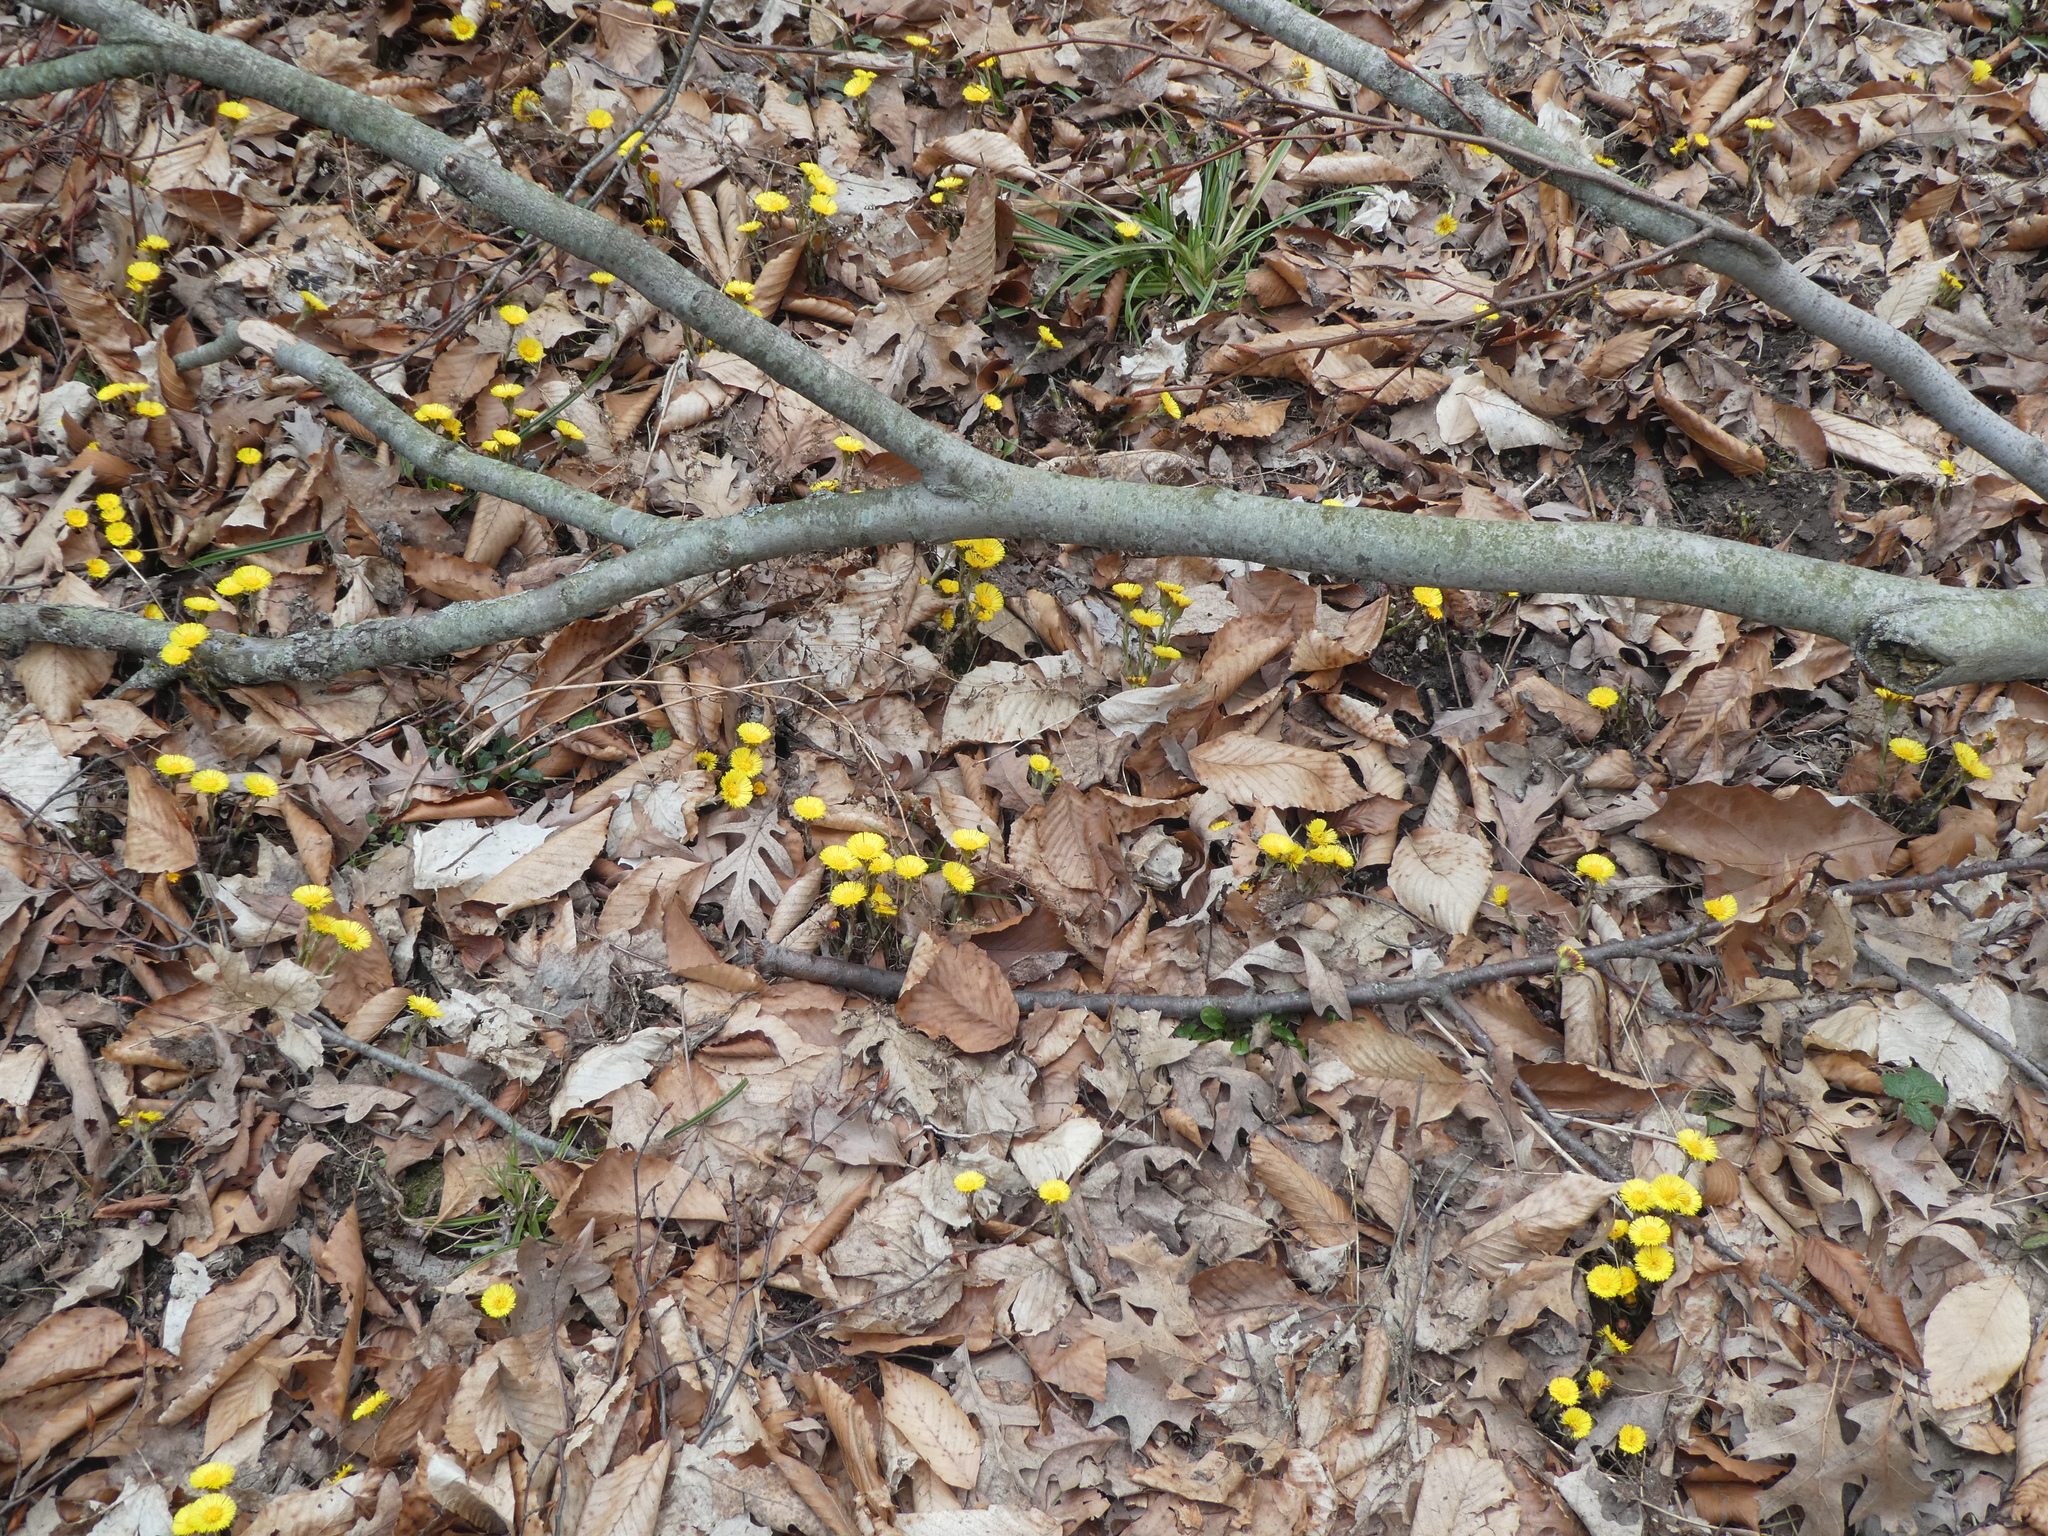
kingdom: Plantae
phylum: Tracheophyta
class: Magnoliopsida
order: Asterales
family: Asteraceae
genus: Tussilago
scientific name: Tussilago farfara
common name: Coltsfoot
